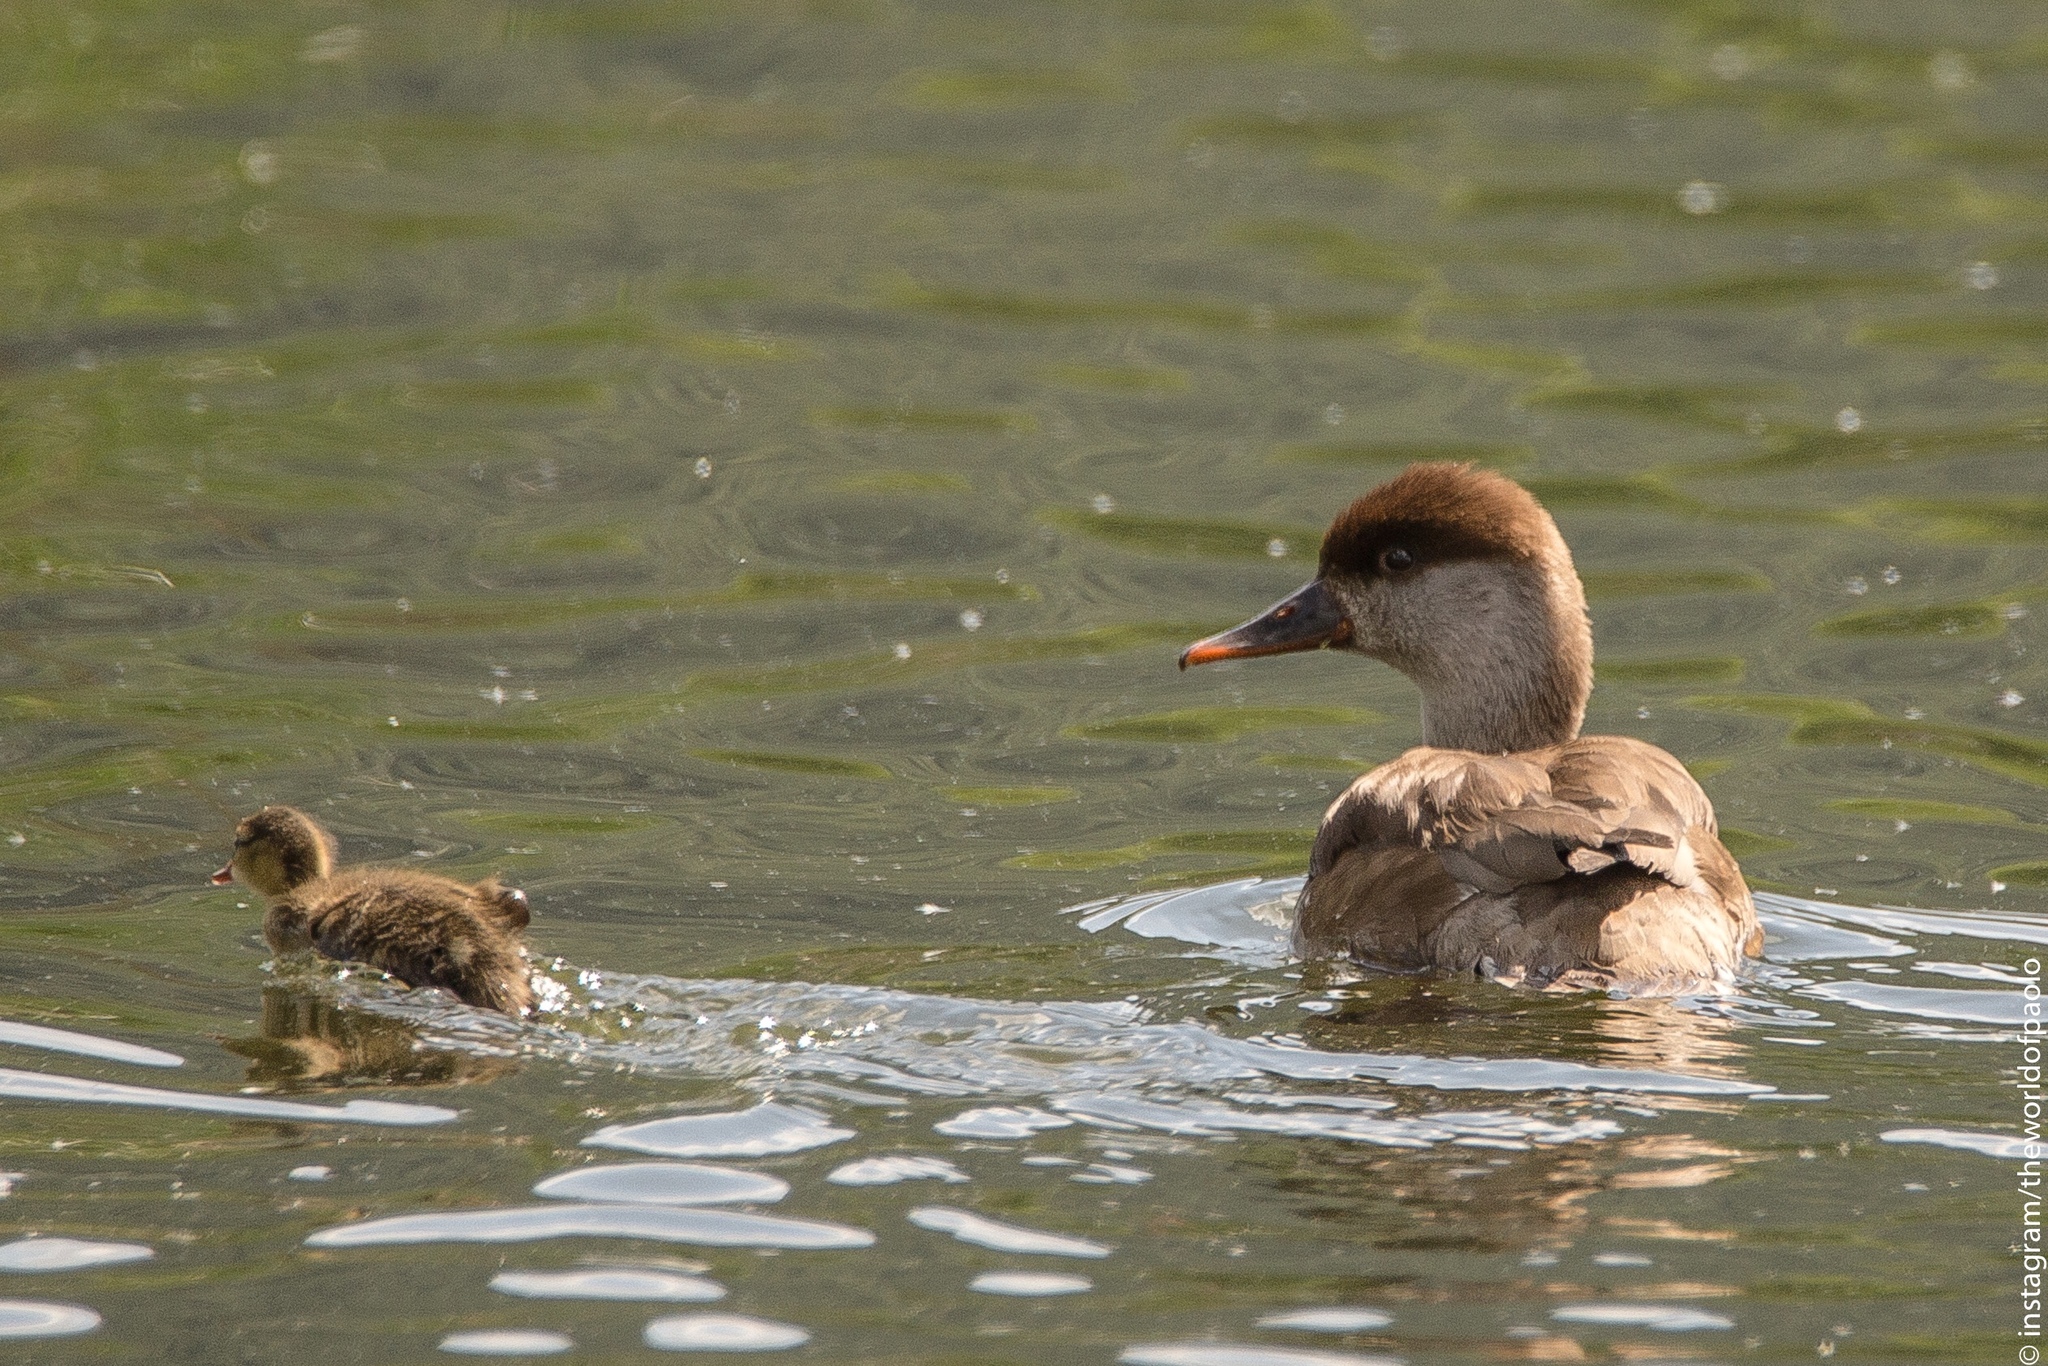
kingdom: Animalia
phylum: Chordata
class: Aves
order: Anseriformes
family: Anatidae
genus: Netta
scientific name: Netta rufina
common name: Red-crested pochard
